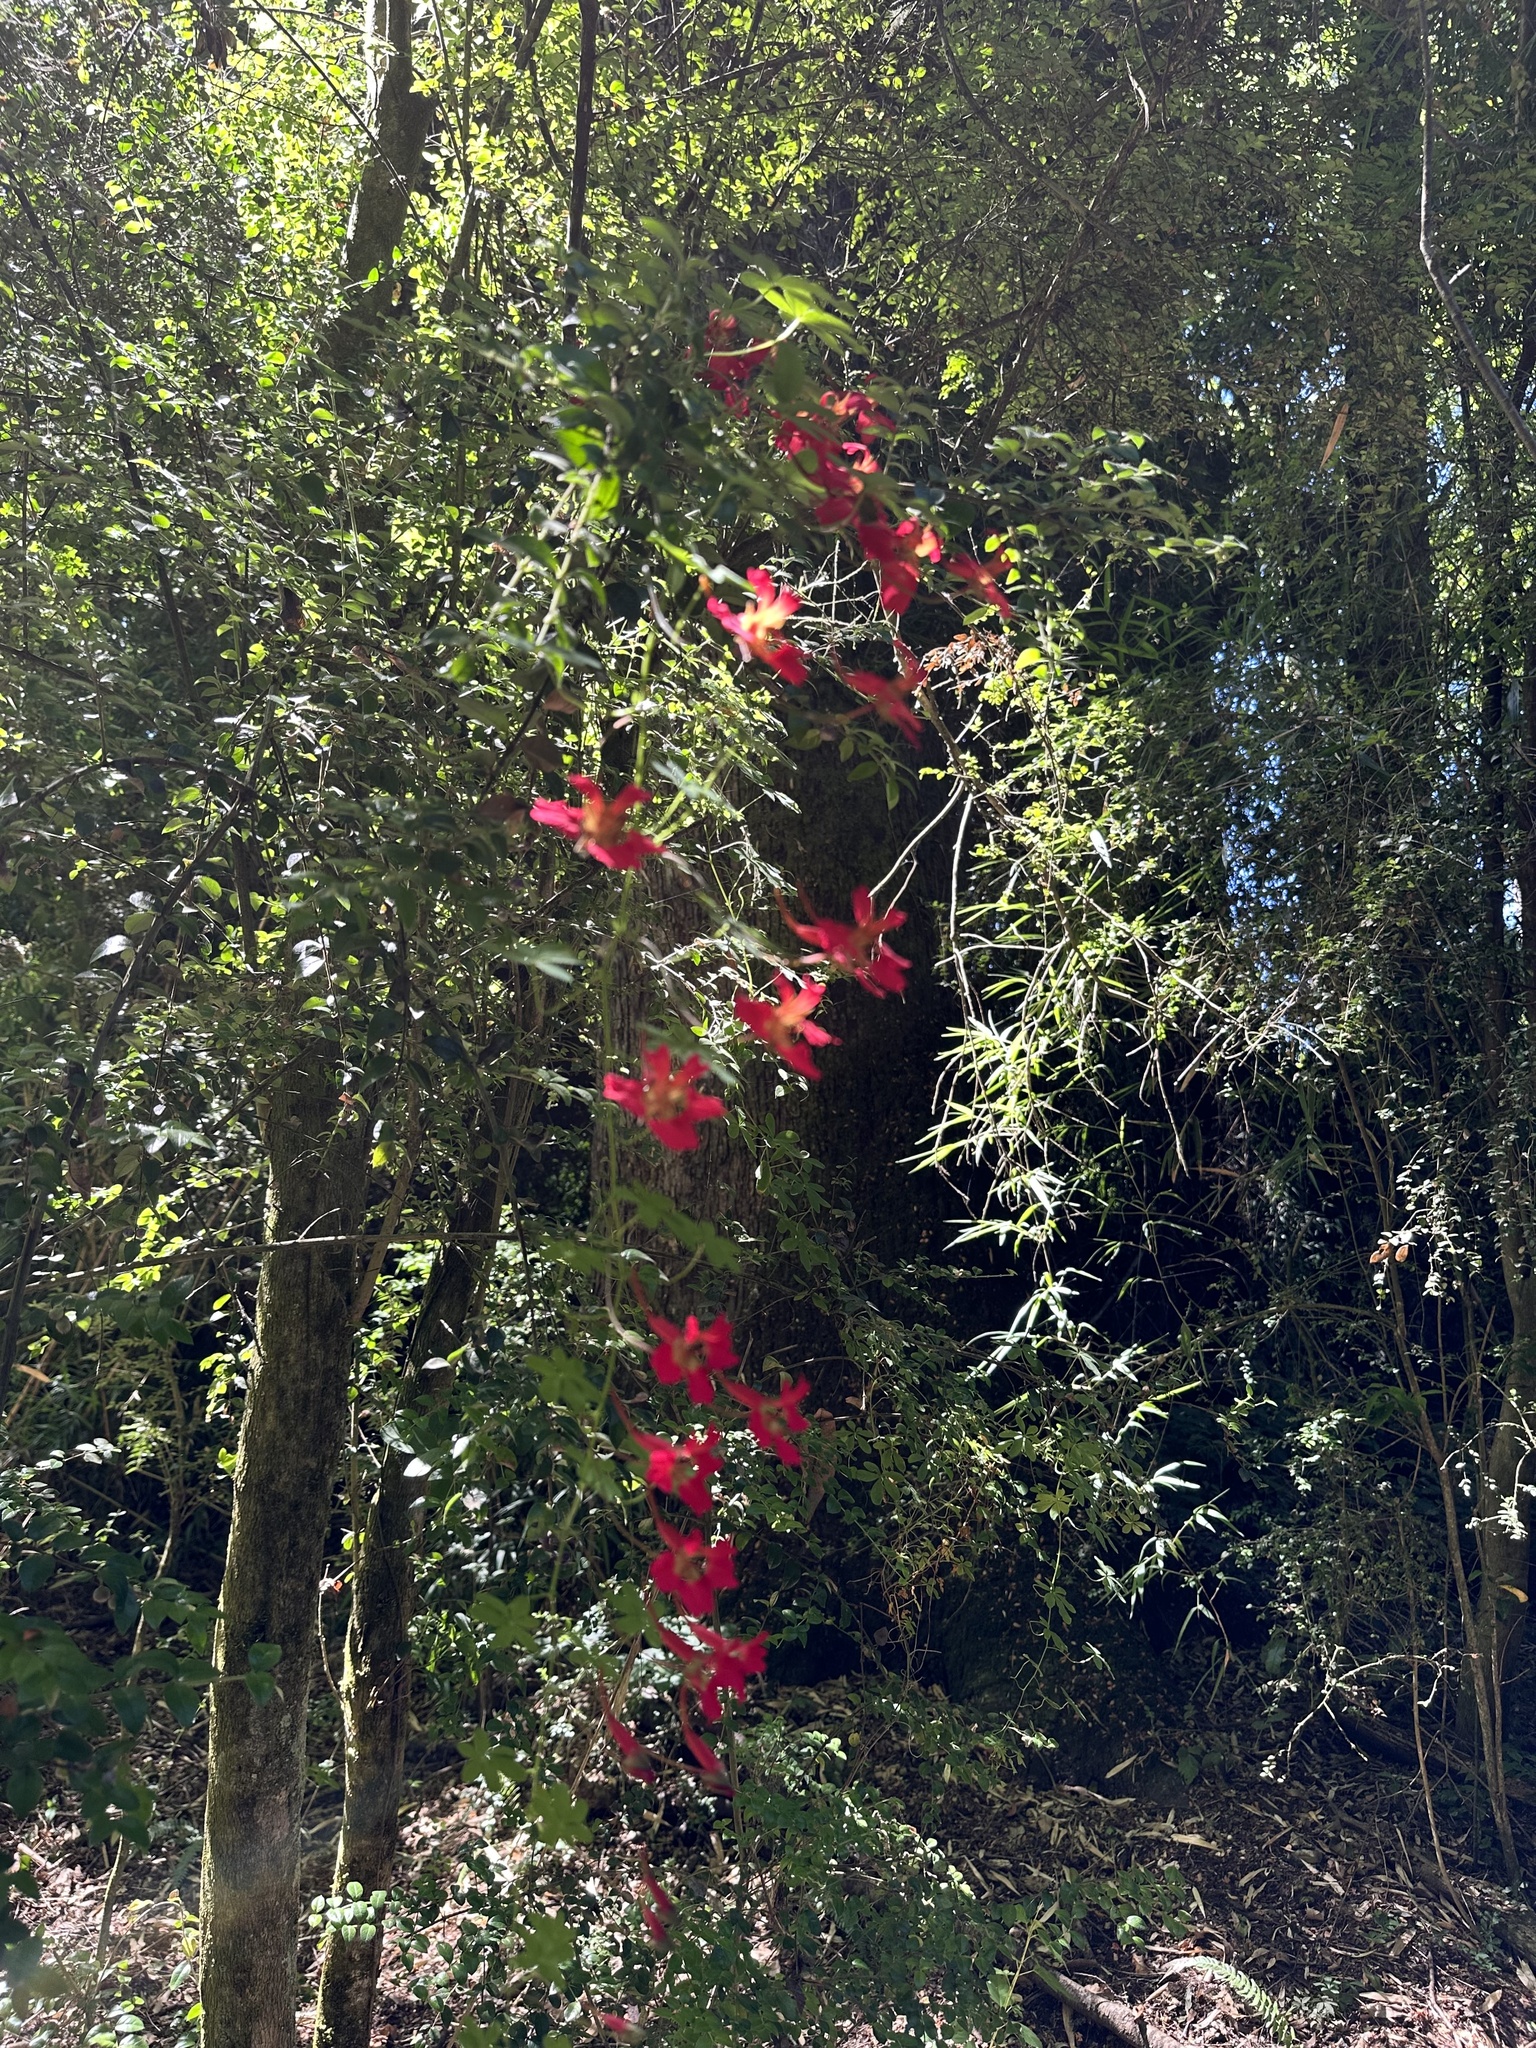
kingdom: Plantae
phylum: Tracheophyta
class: Magnoliopsida
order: Brassicales
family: Tropaeolaceae
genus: Tropaeolum
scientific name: Tropaeolum speciosum
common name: Flame nasturtium
